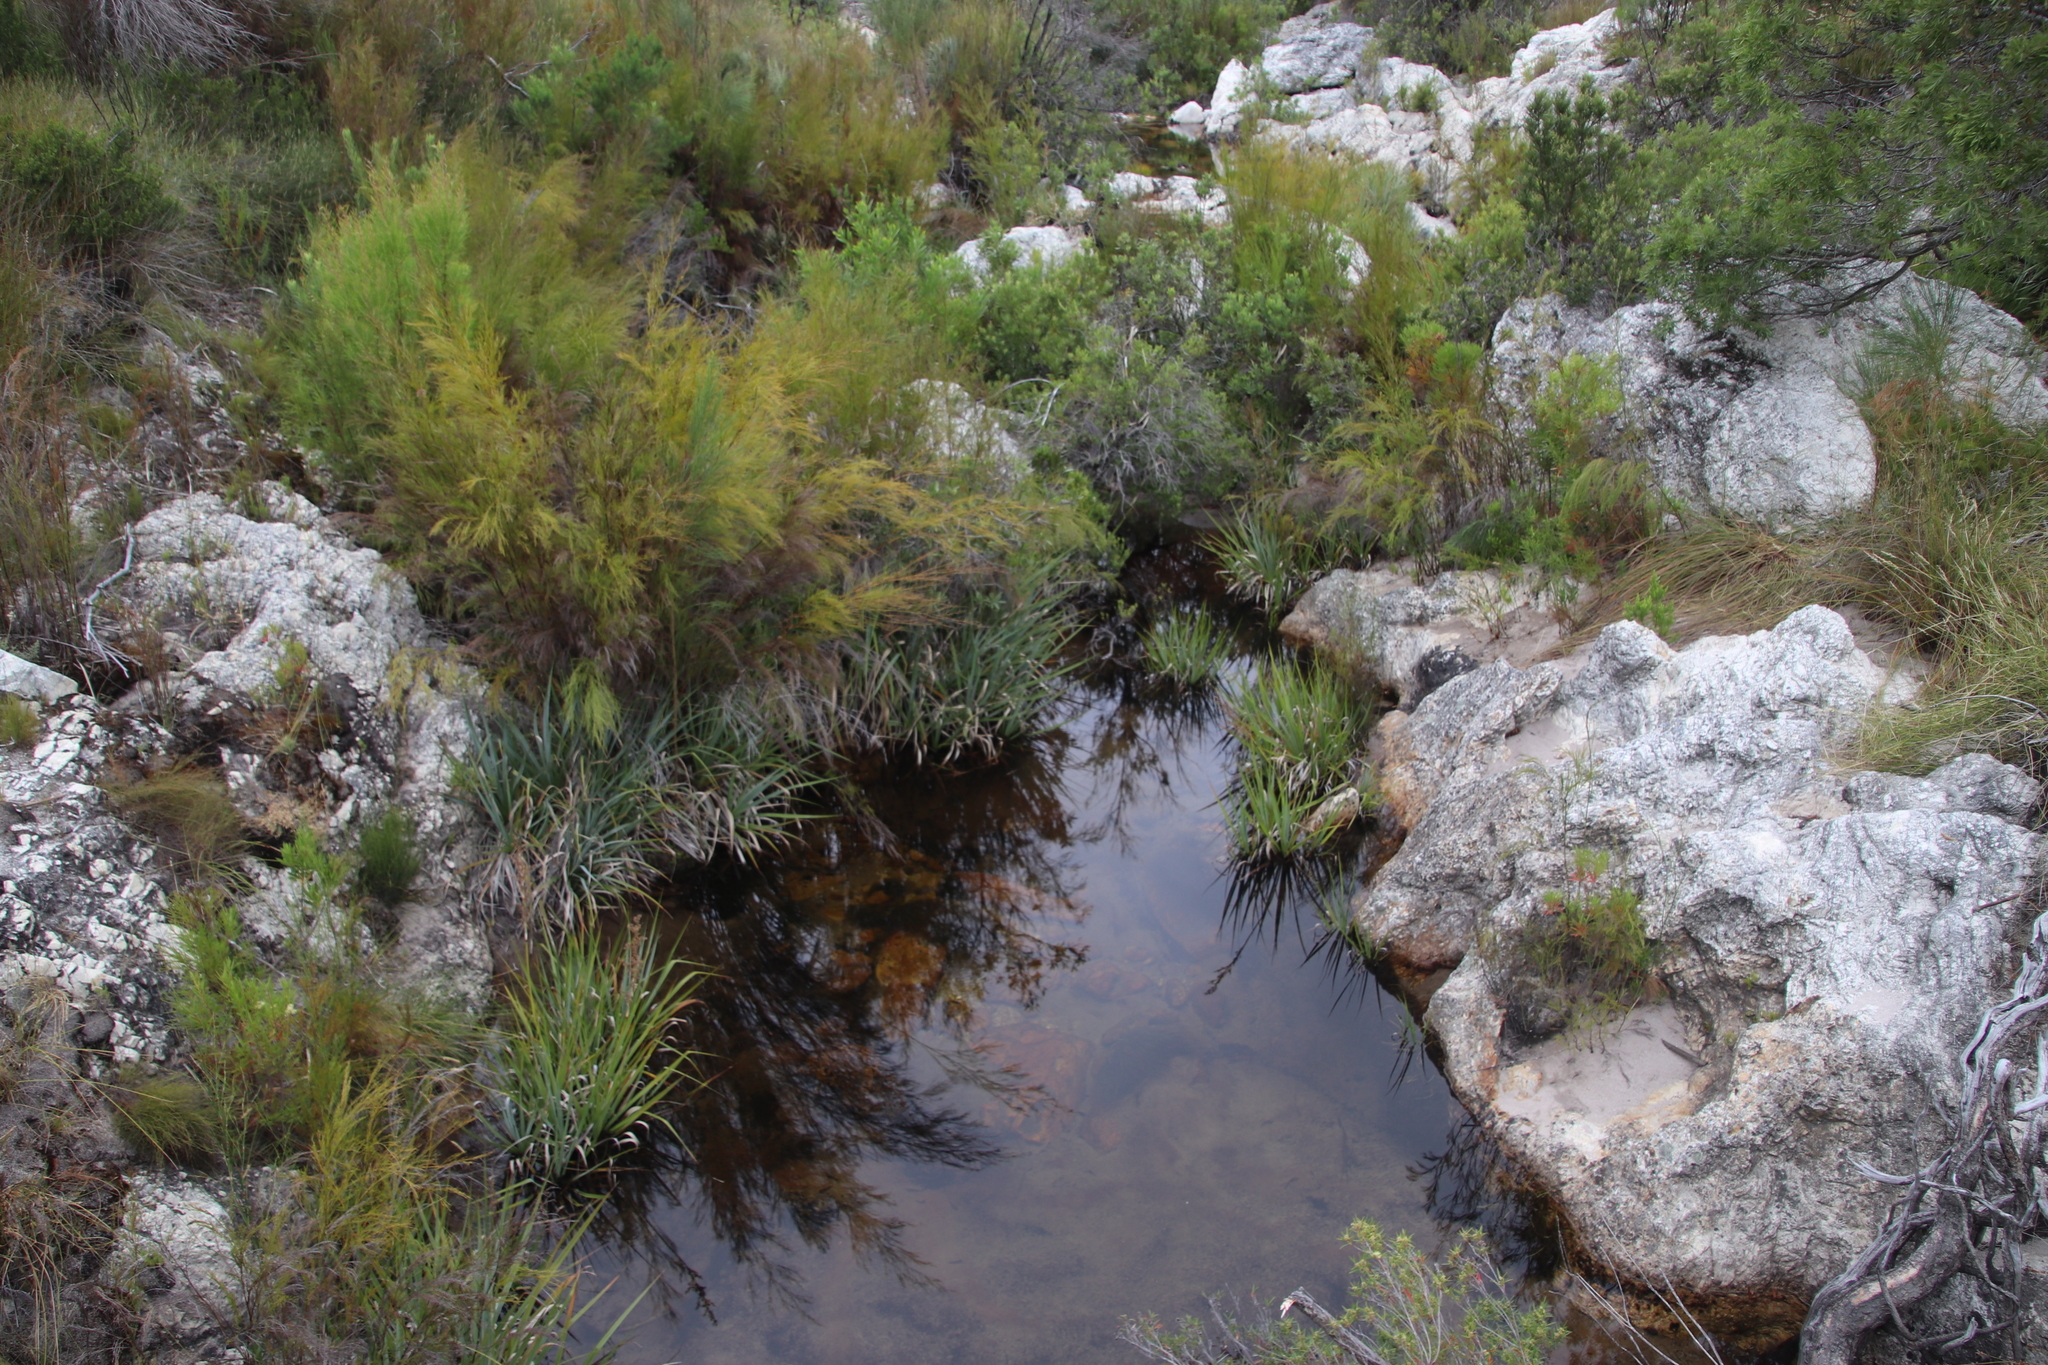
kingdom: Plantae
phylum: Tracheophyta
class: Liliopsida
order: Poales
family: Thurniaceae
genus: Prionium
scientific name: Prionium serratum
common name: Palmiet
